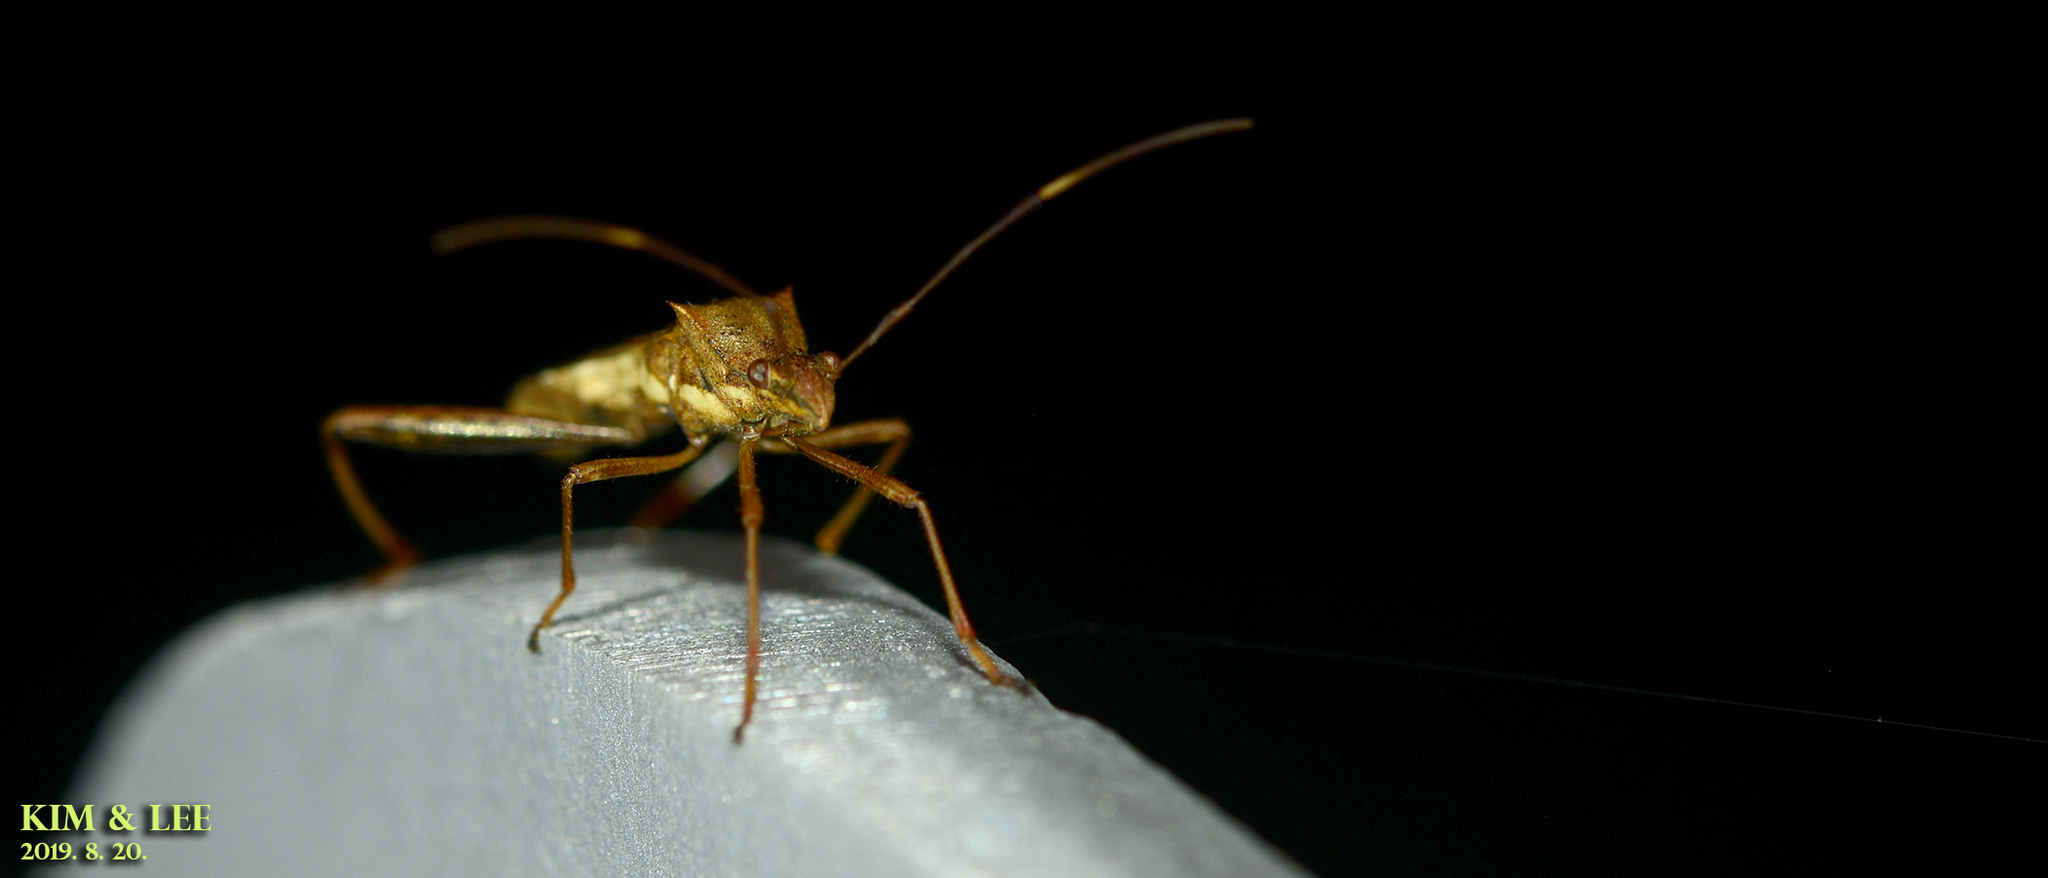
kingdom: Animalia
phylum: Arthropoda
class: Insecta
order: Hemiptera
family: Alydidae
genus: Riptortus
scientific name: Riptortus pedestris
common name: Bean bug
